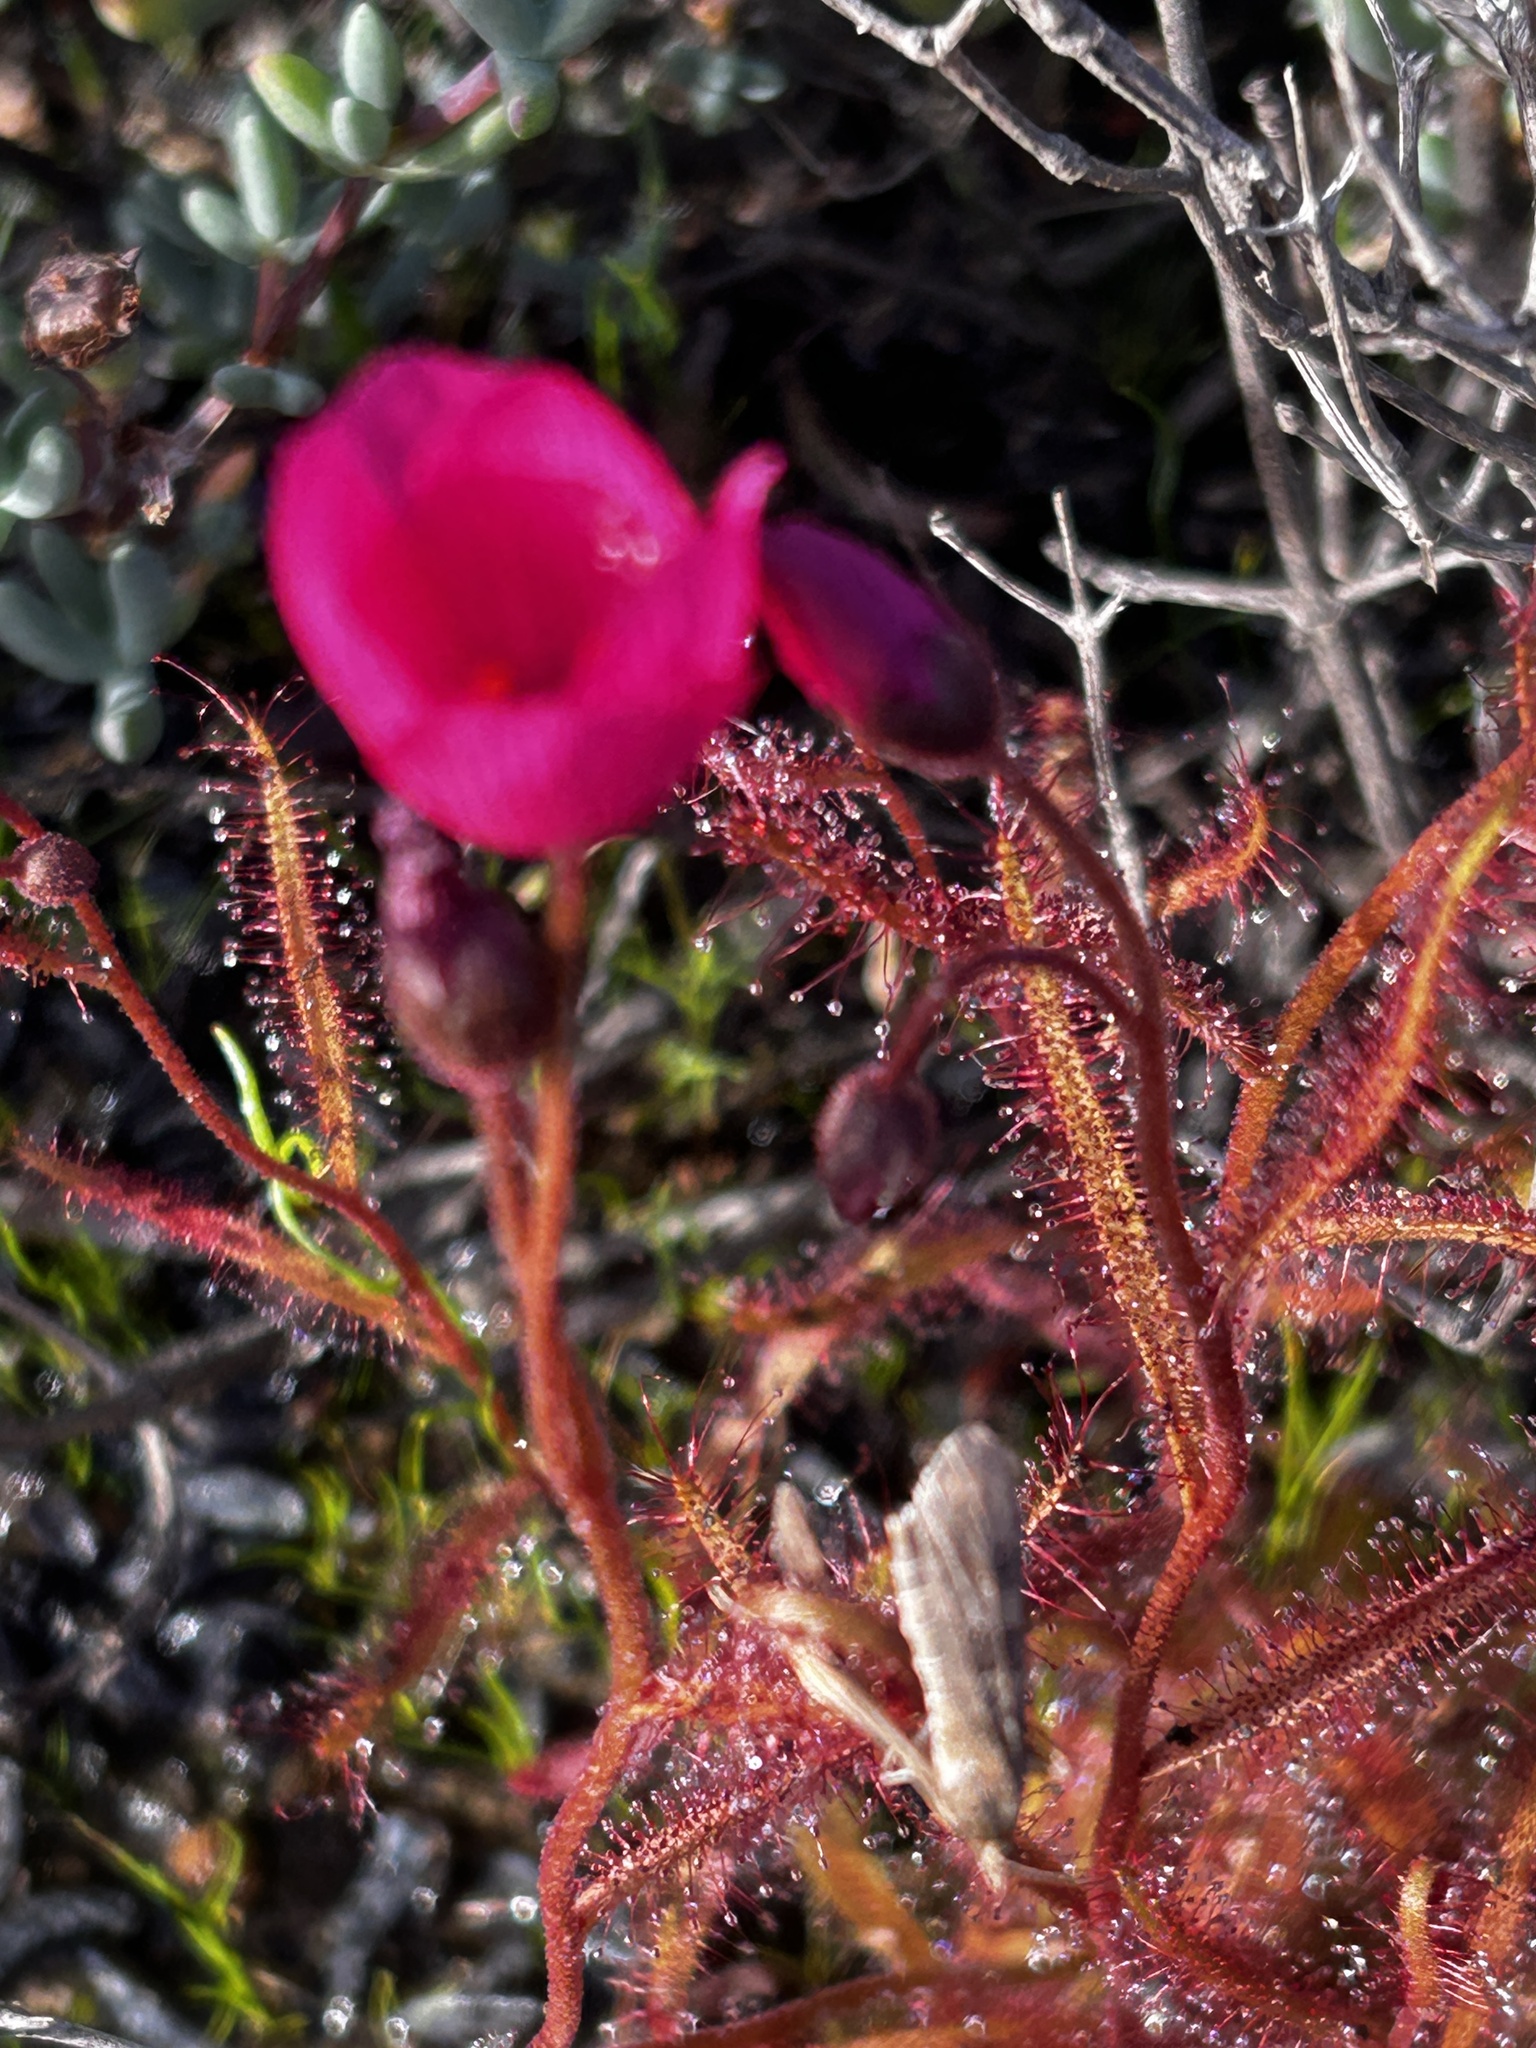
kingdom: Plantae
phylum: Tracheophyta
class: Magnoliopsida
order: Caryophyllales
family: Droseraceae
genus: Drosera
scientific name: Drosera cistiflora
